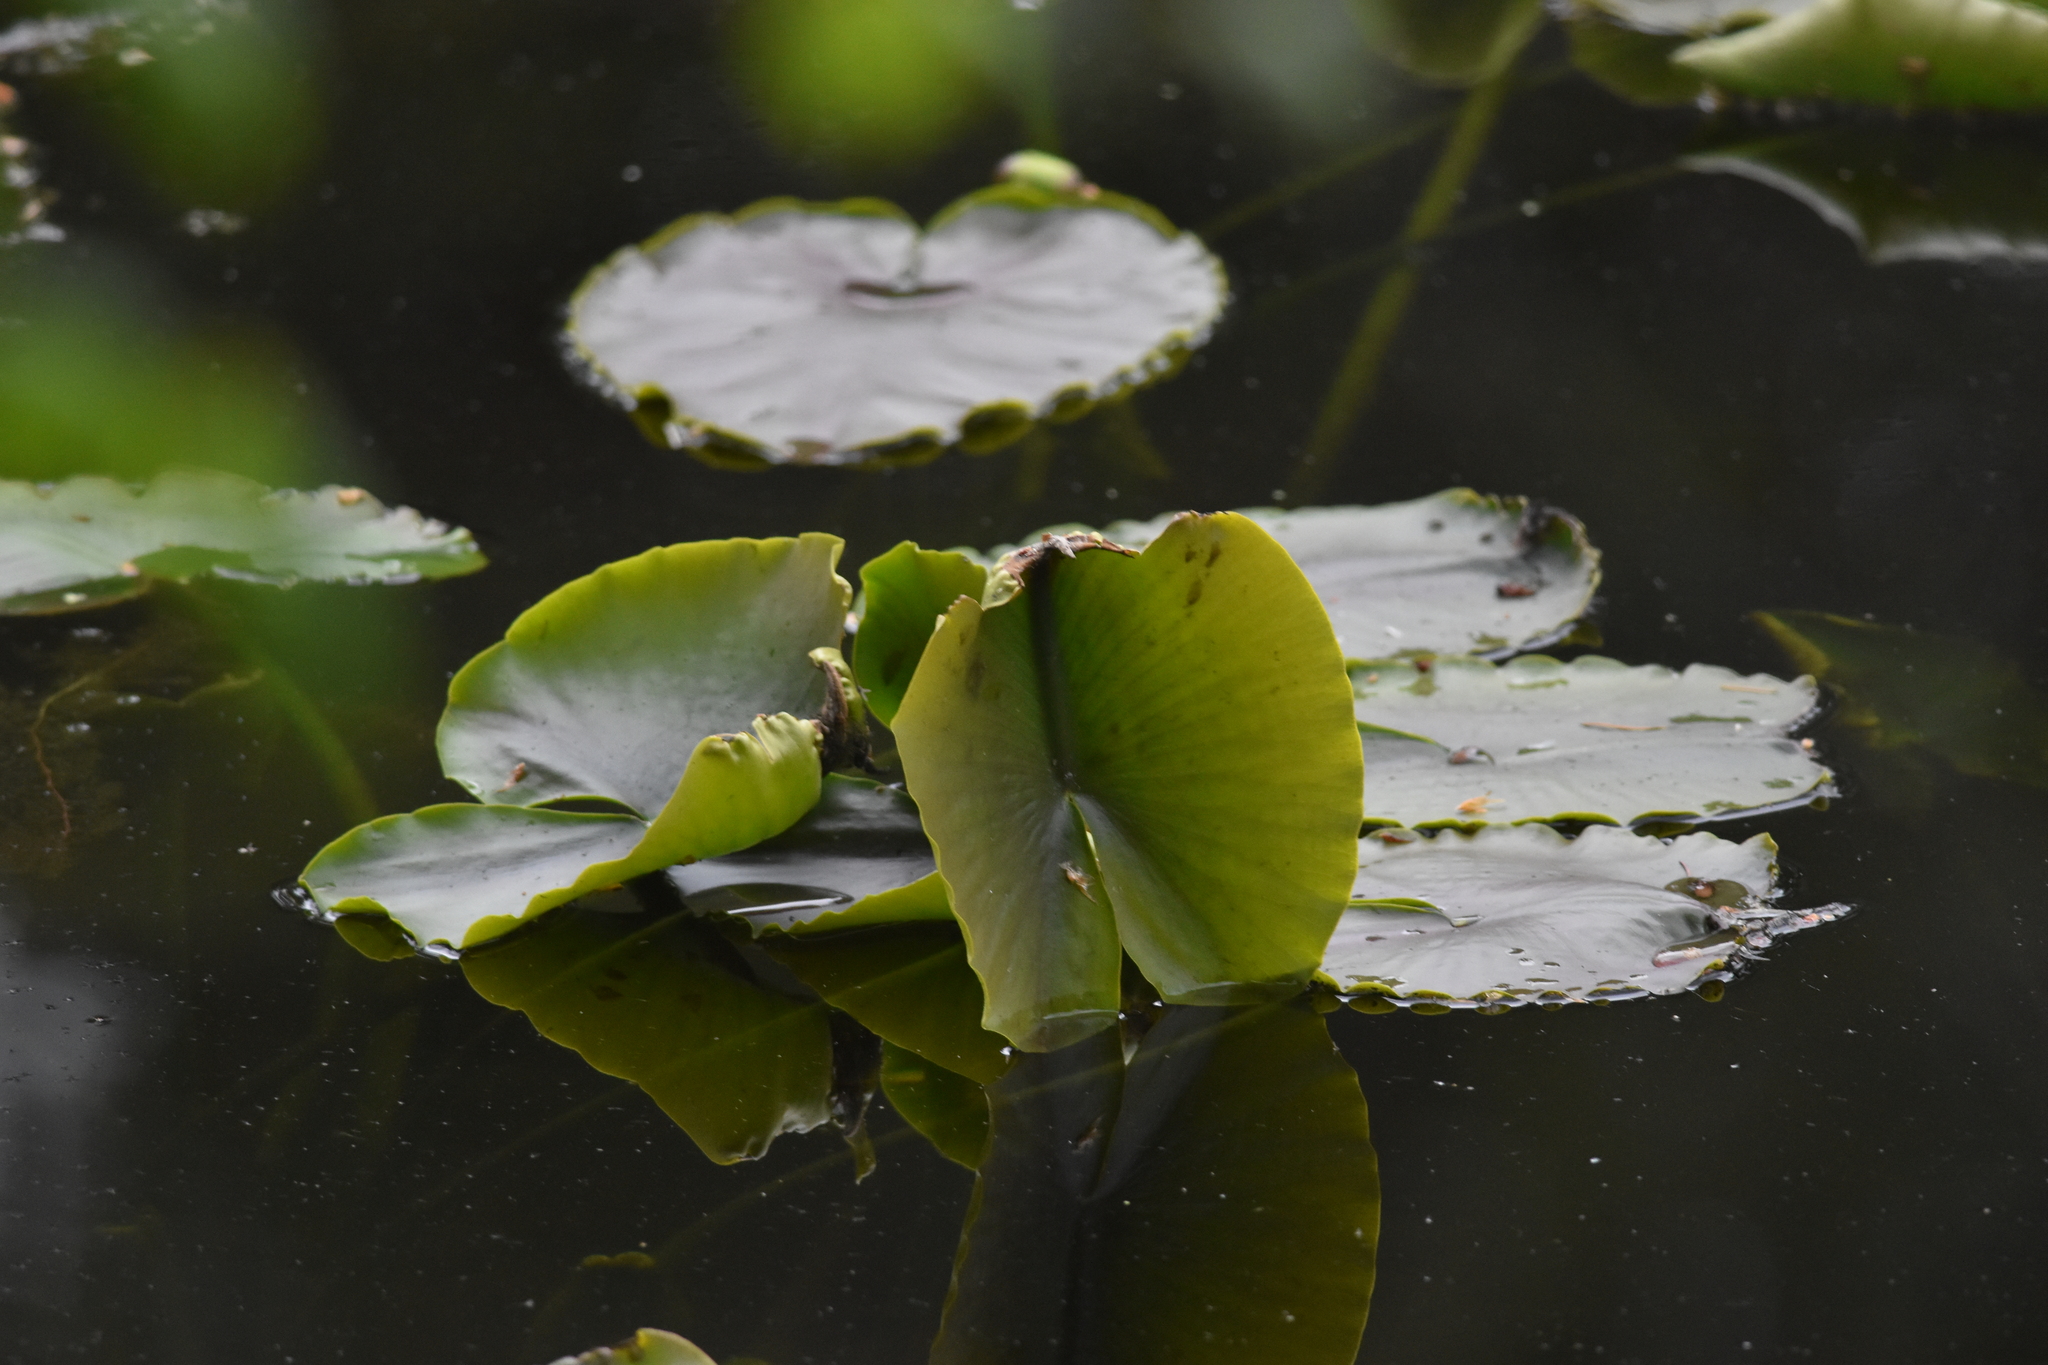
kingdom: Plantae
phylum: Tracheophyta
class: Magnoliopsida
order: Nymphaeales
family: Nymphaeaceae
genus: Nuphar
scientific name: Nuphar polysepala
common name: Rocky mountain cow-lily
